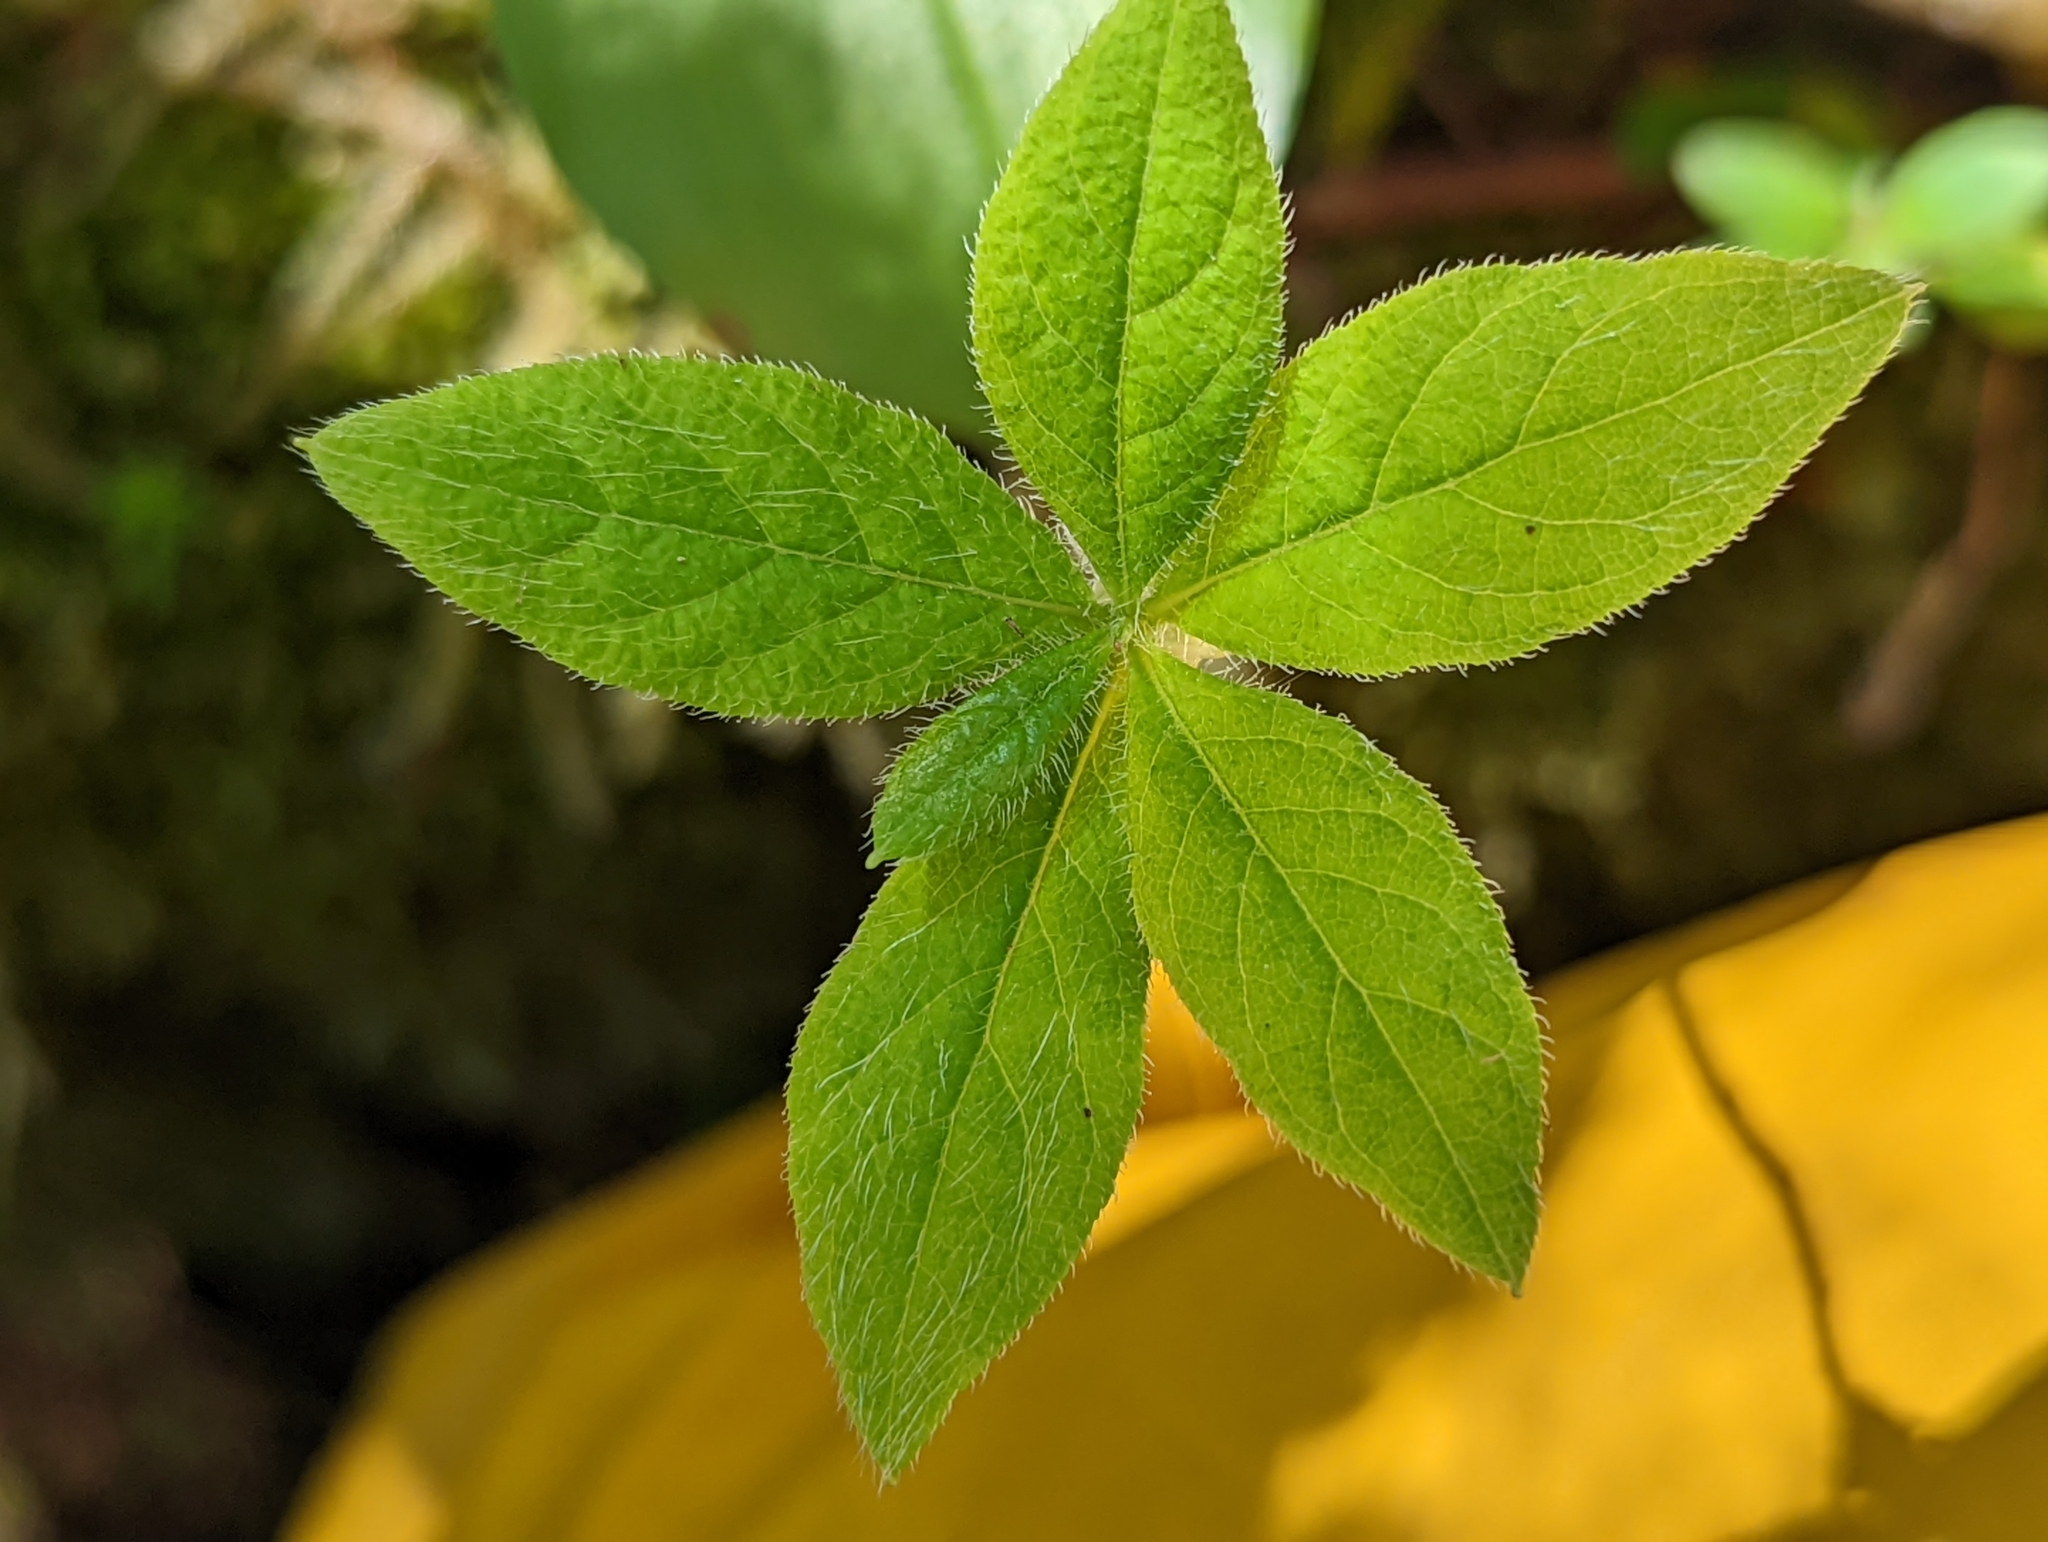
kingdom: Plantae
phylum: Tracheophyta
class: Magnoliopsida
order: Ericales
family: Ericaceae
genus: Rhododendron
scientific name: Rhododendron menziesii
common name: Pacific menziesia
